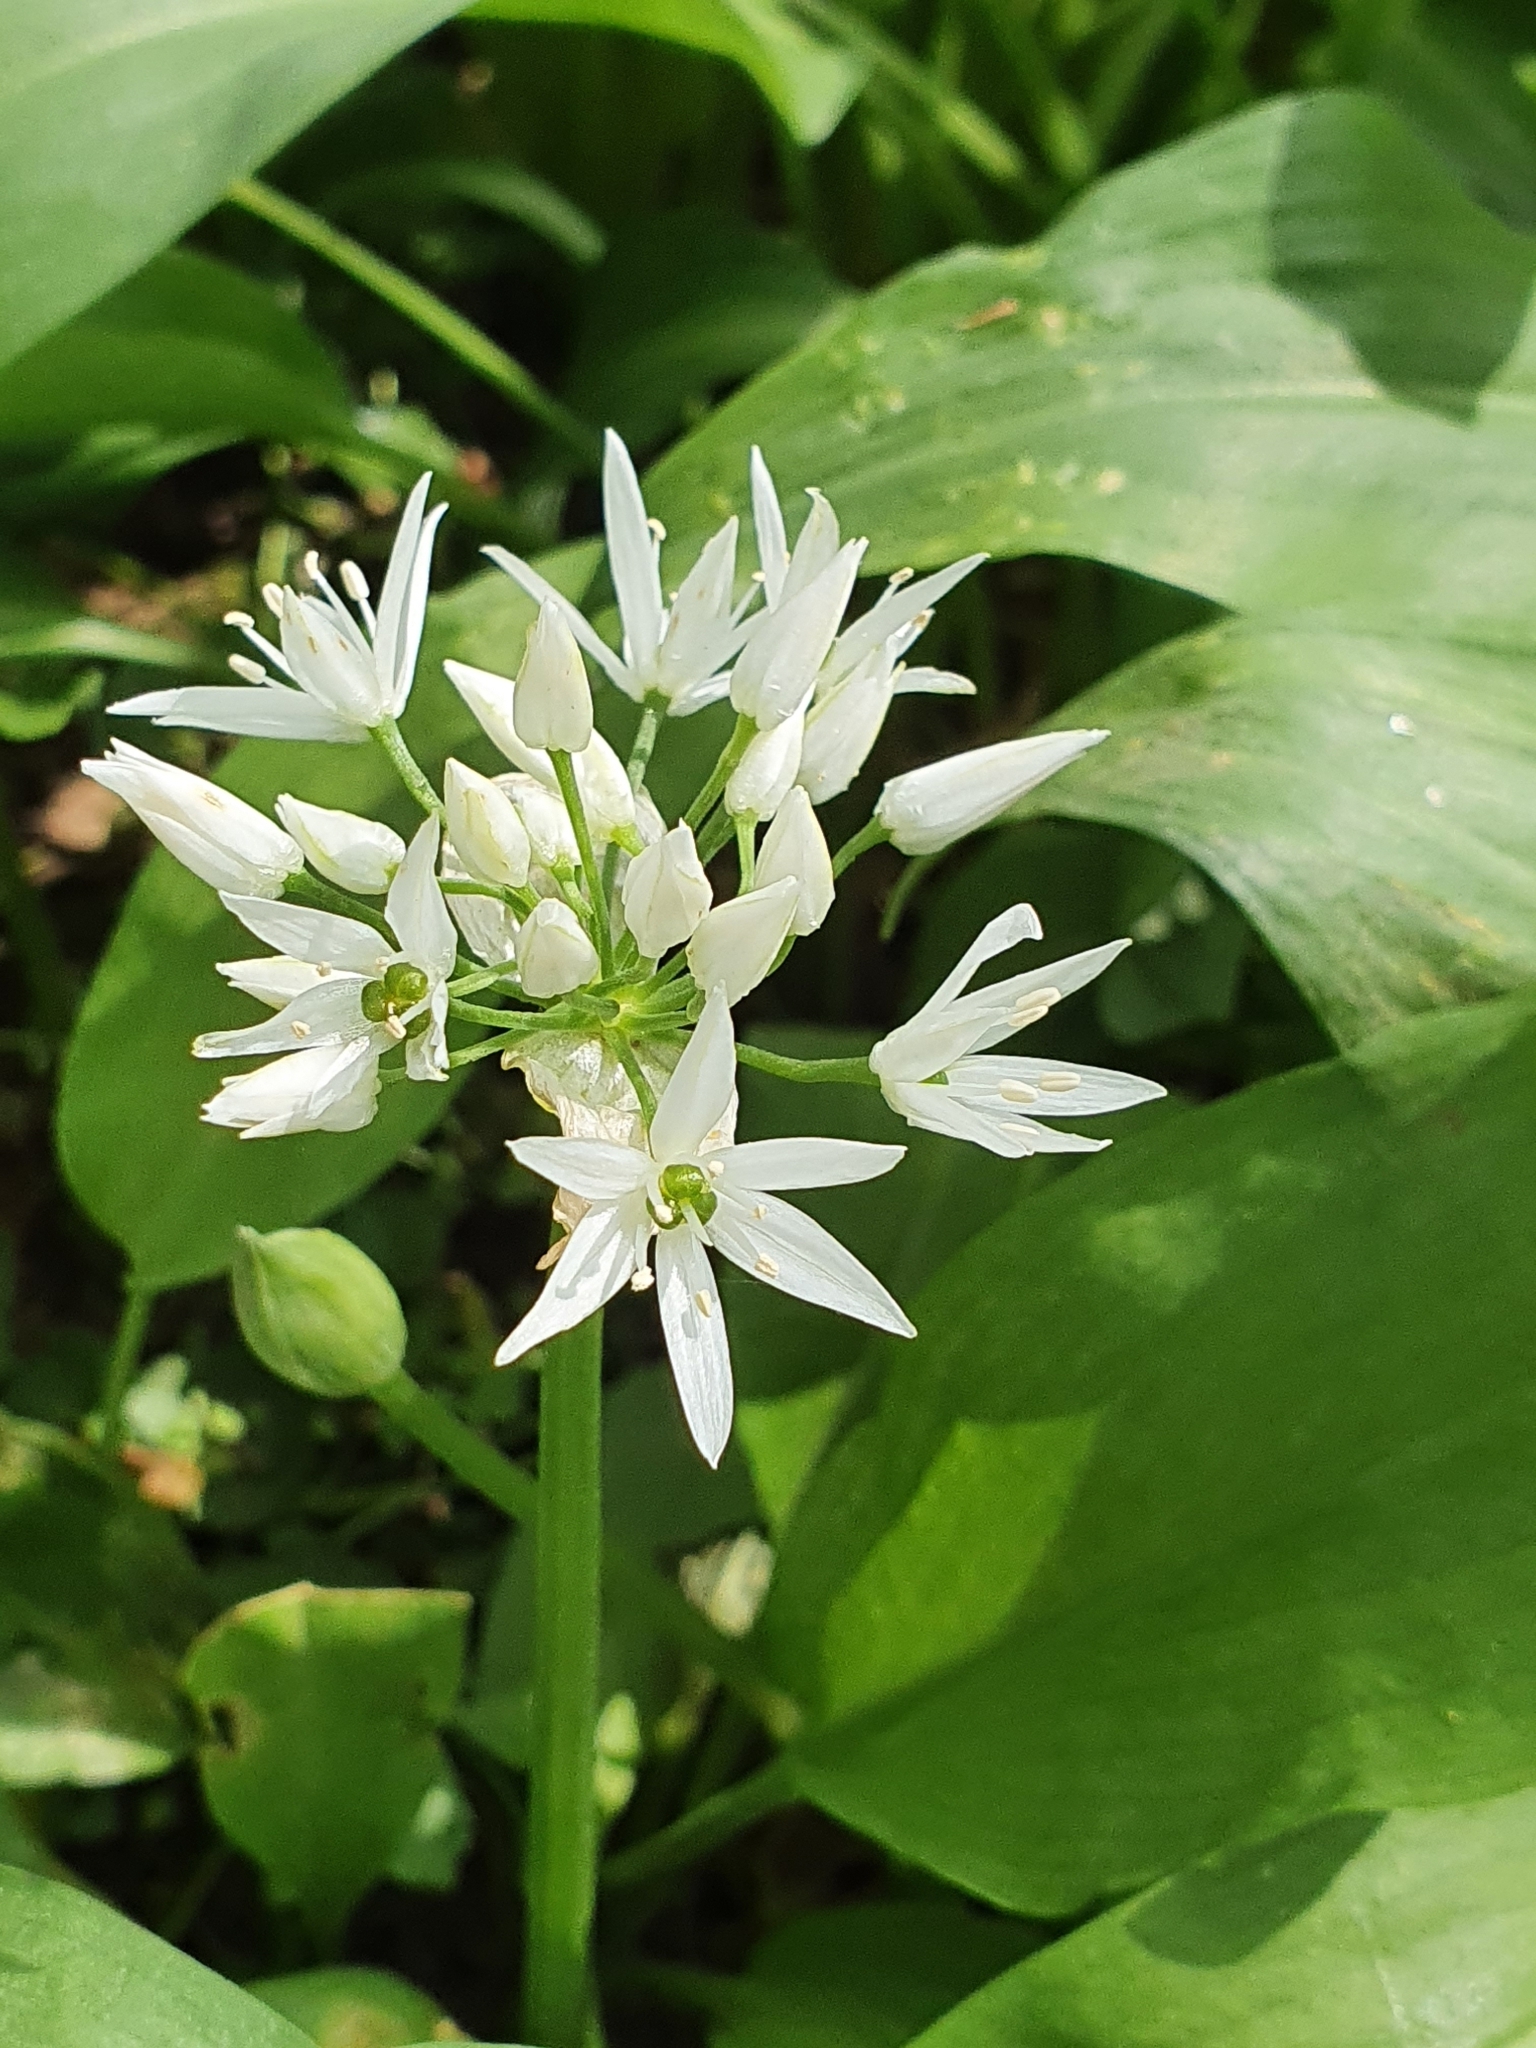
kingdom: Plantae
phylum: Tracheophyta
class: Liliopsida
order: Asparagales
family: Amaryllidaceae
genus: Allium
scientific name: Allium ursinum
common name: Ramsons
